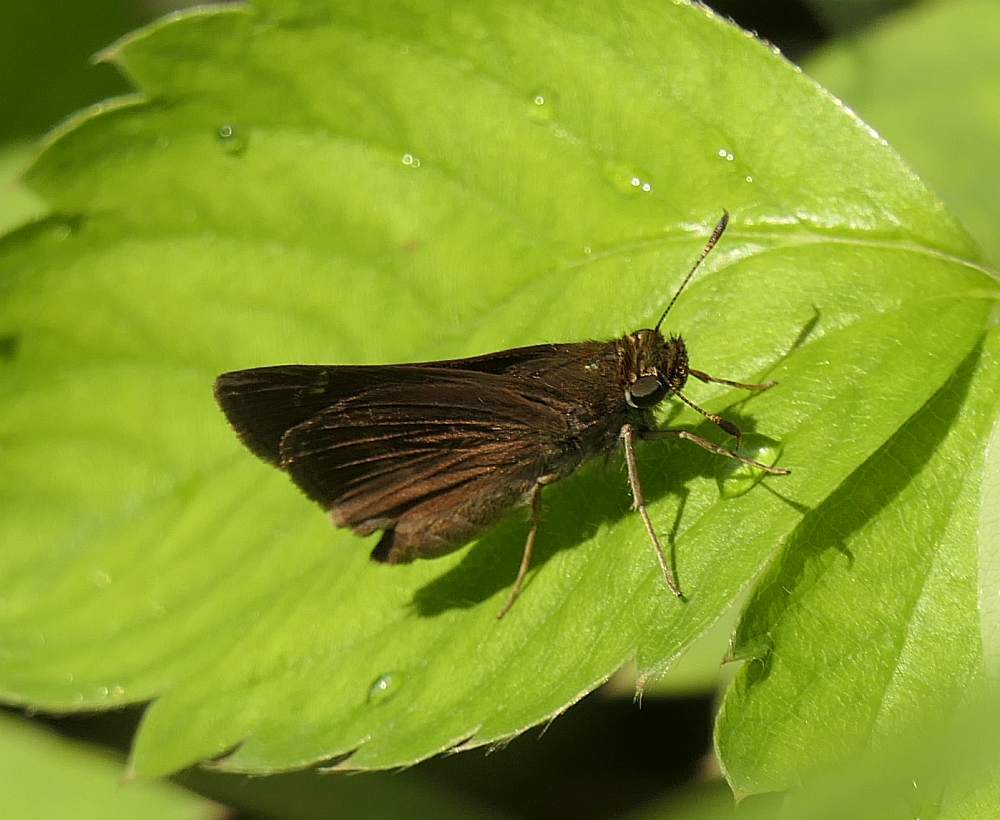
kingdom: Animalia
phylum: Arthropoda
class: Insecta
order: Lepidoptera
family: Hesperiidae
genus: Euphyes
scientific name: Euphyes vestris
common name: Dun skipper
